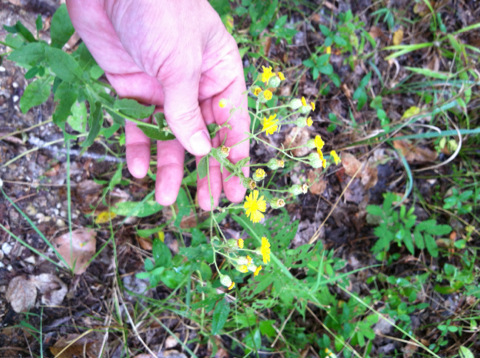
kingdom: Plantae
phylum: Tracheophyta
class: Magnoliopsida
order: Asterales
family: Asteraceae
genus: Heterotheca
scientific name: Heterotheca subaxillaris
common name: Camphorweed
